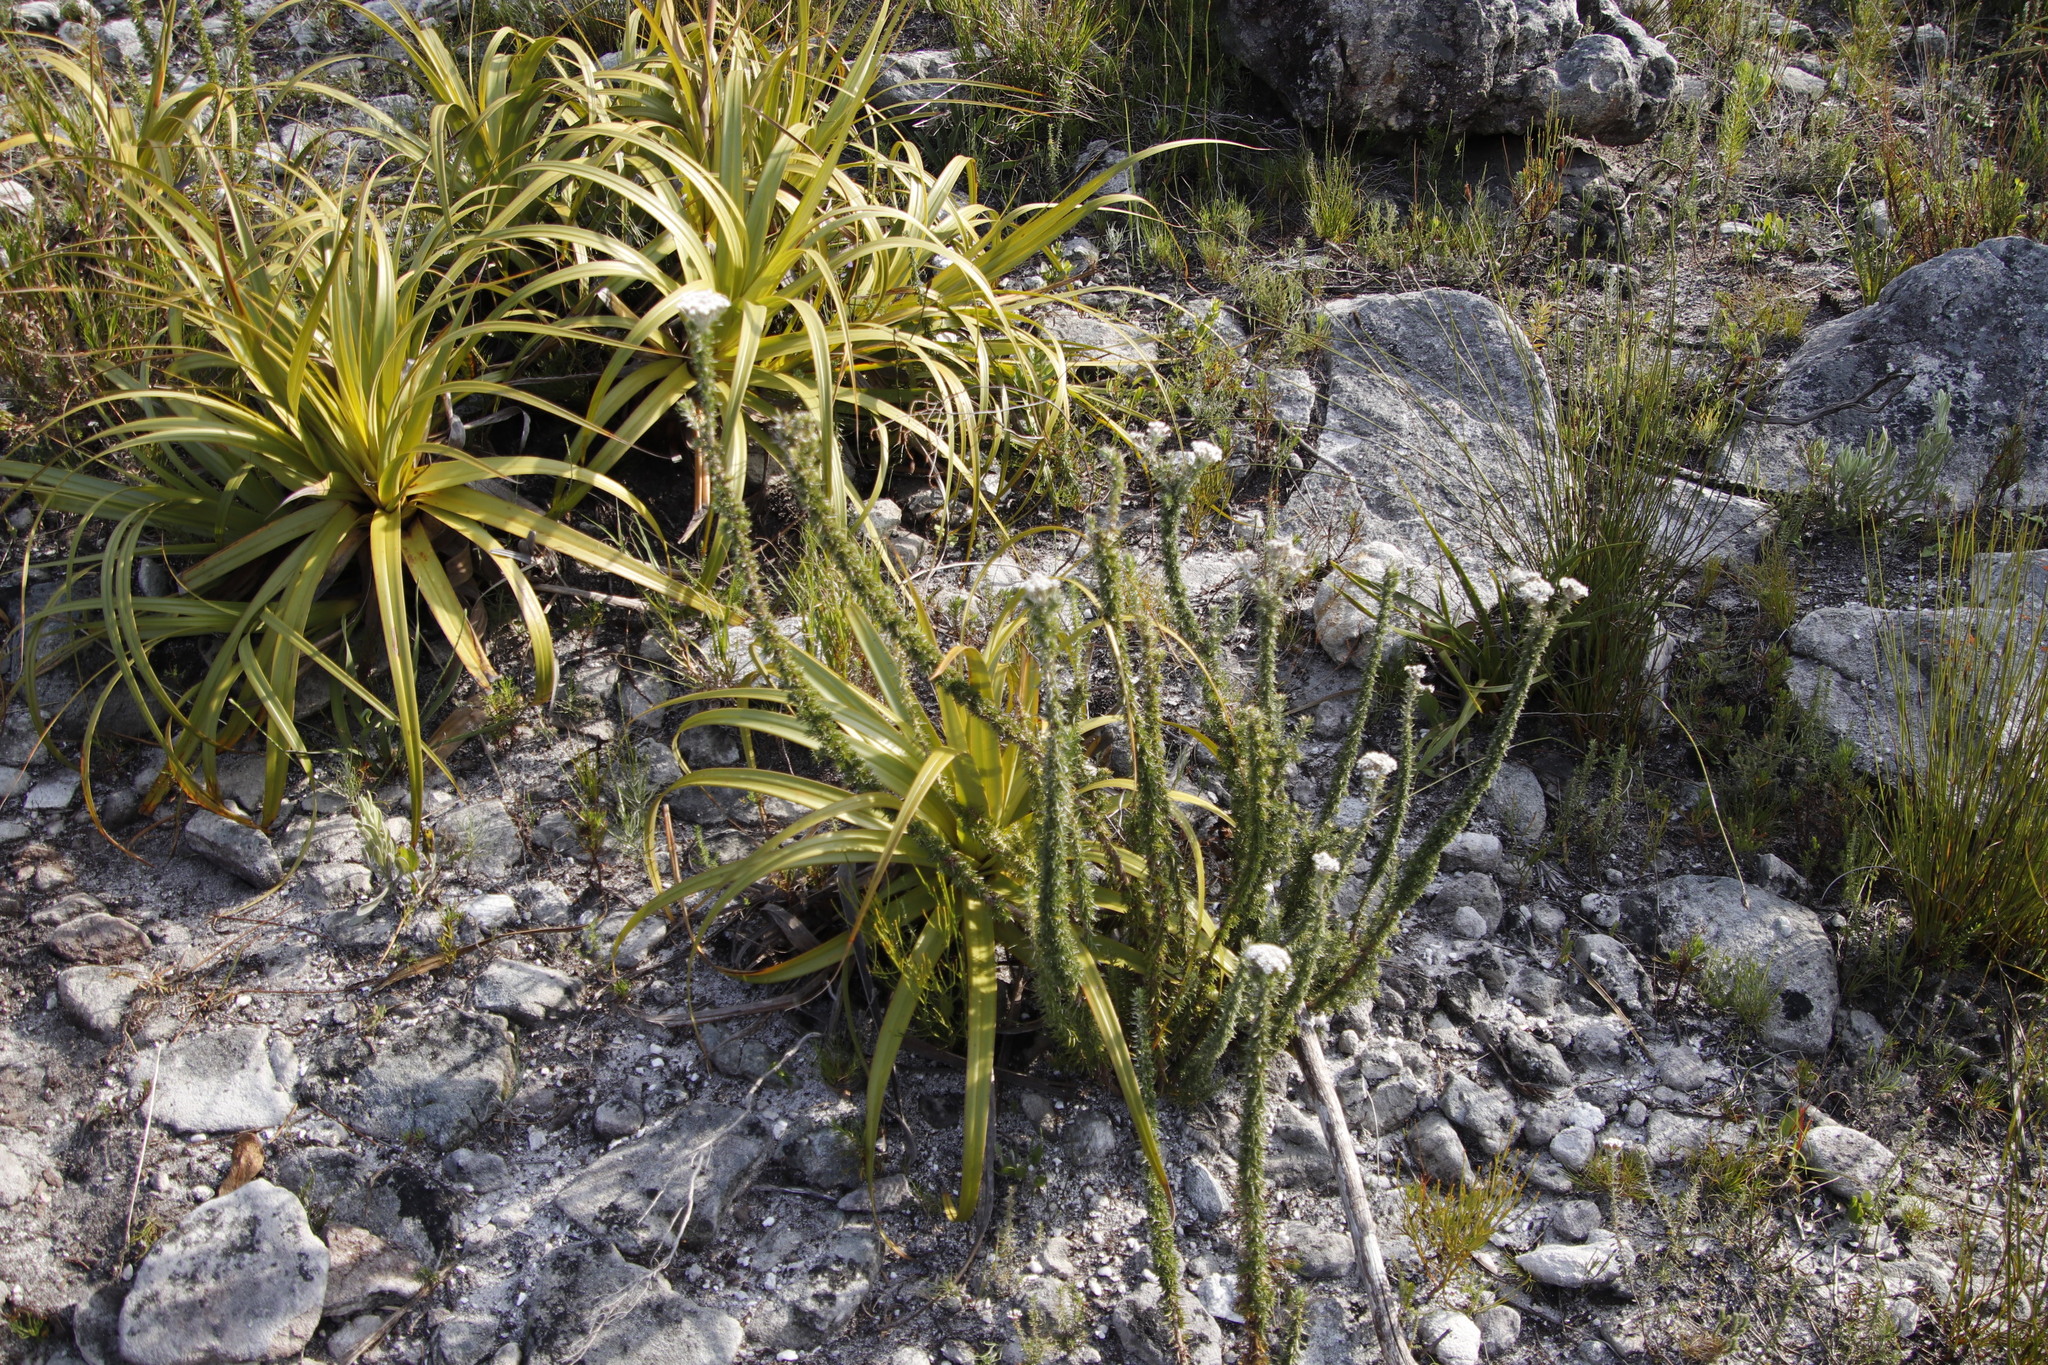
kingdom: Plantae
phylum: Tracheophyta
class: Liliopsida
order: Poales
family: Cyperaceae
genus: Tetraria
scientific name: Tetraria thermalis
